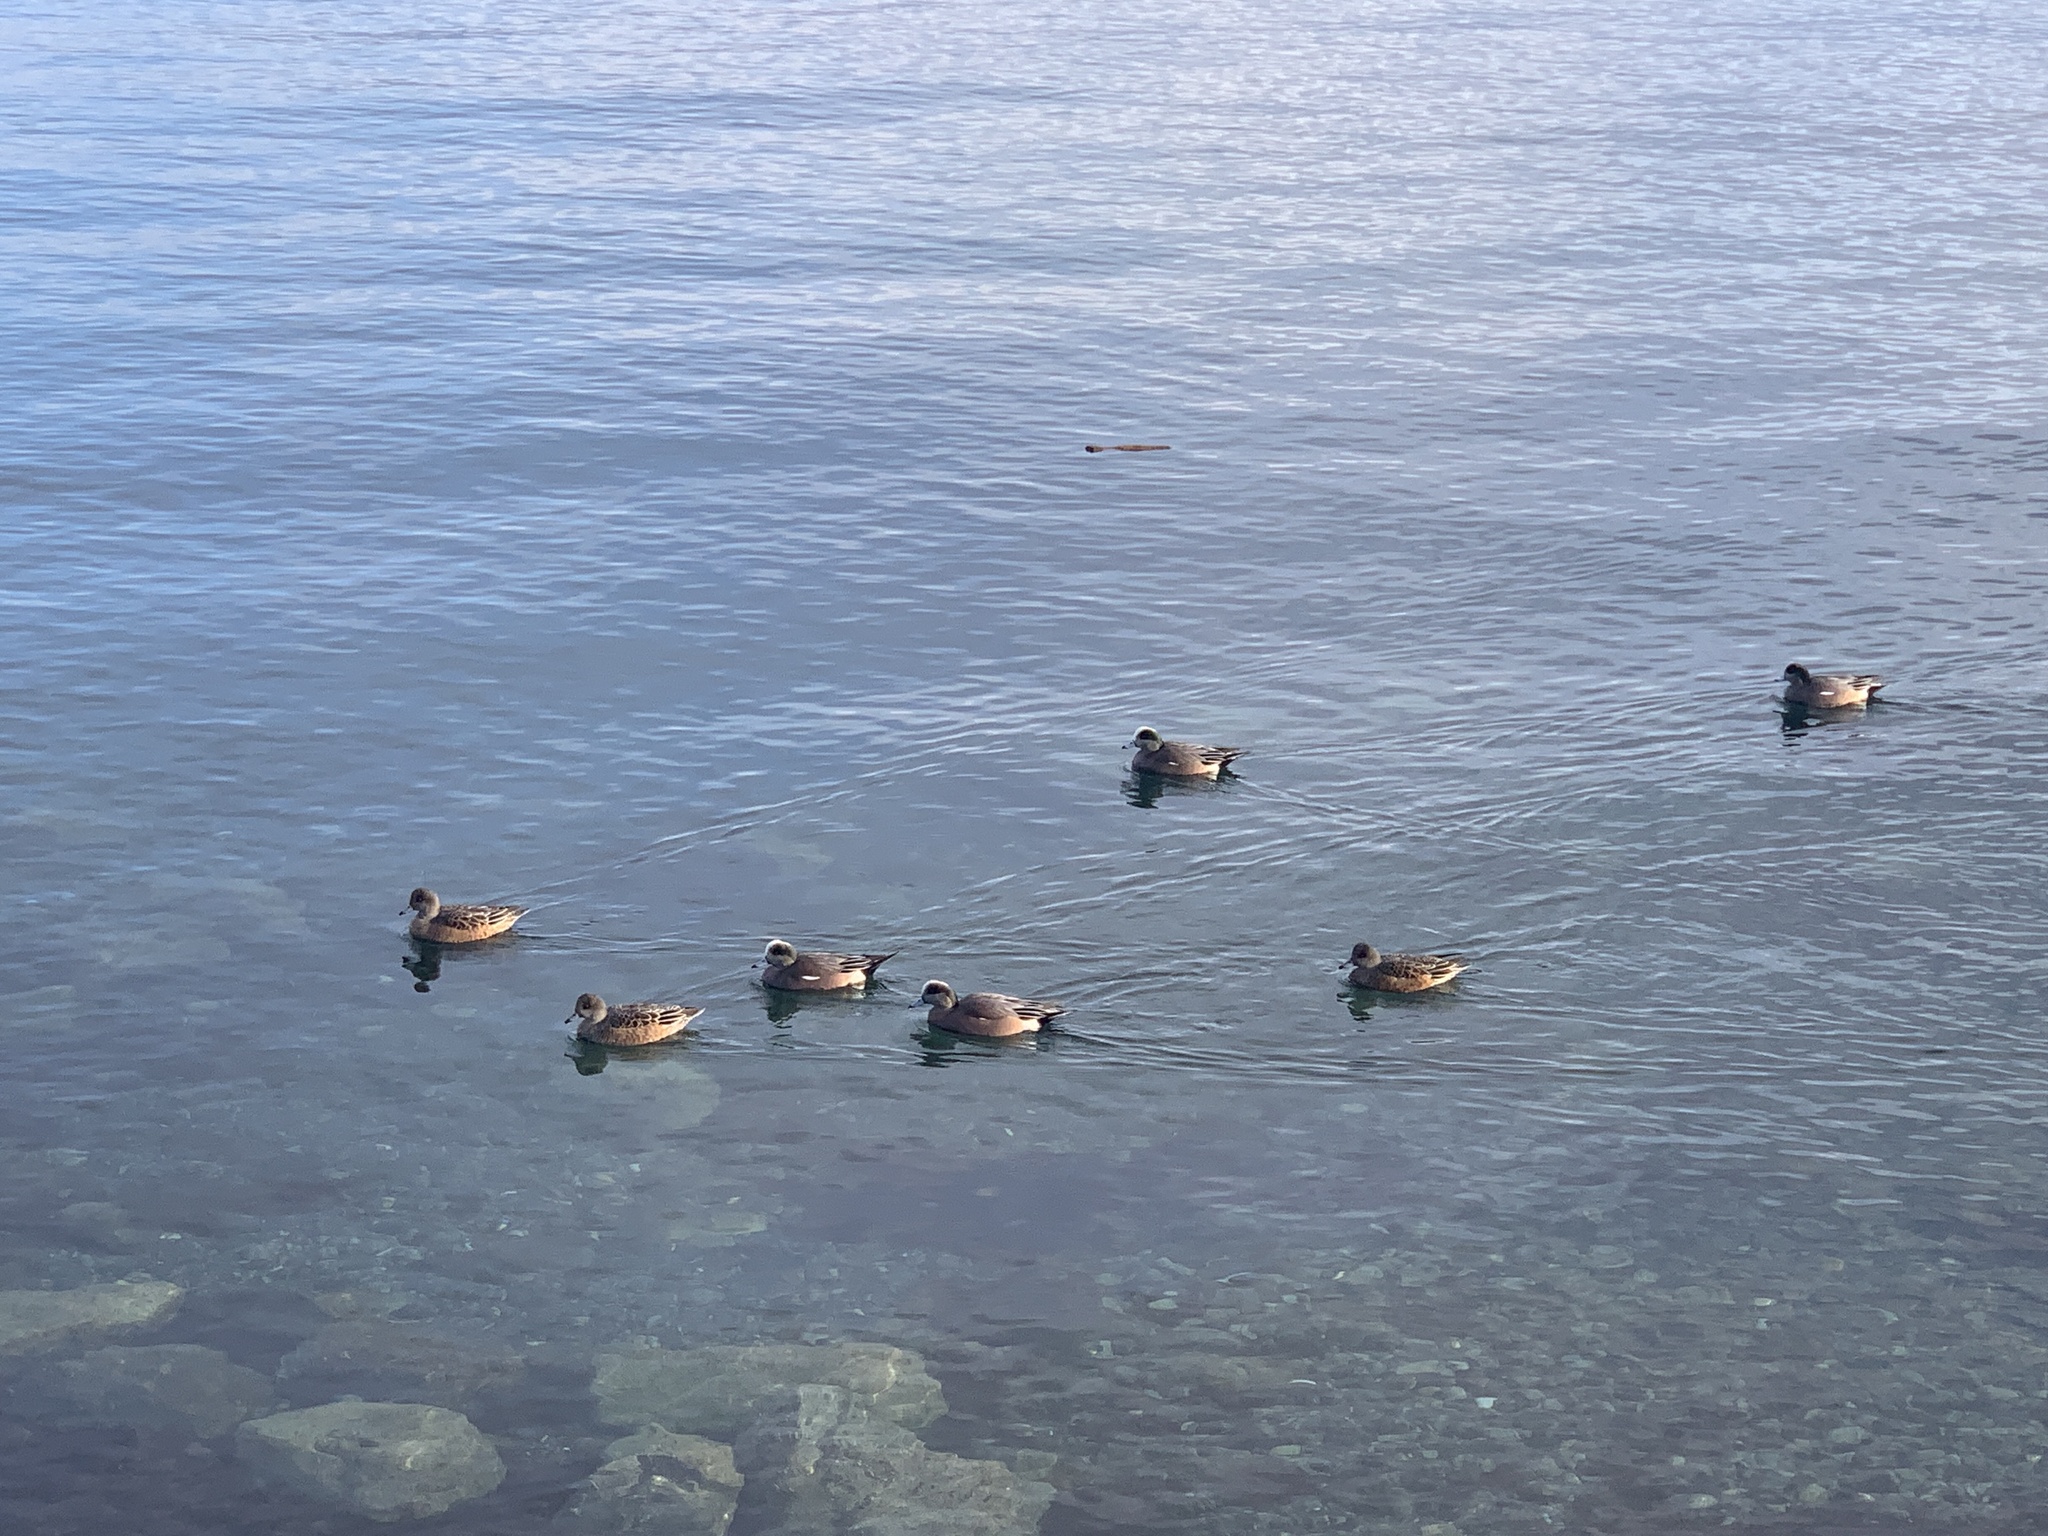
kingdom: Animalia
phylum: Chordata
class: Aves
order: Anseriformes
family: Anatidae
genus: Mareca
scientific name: Mareca americana
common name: American wigeon
